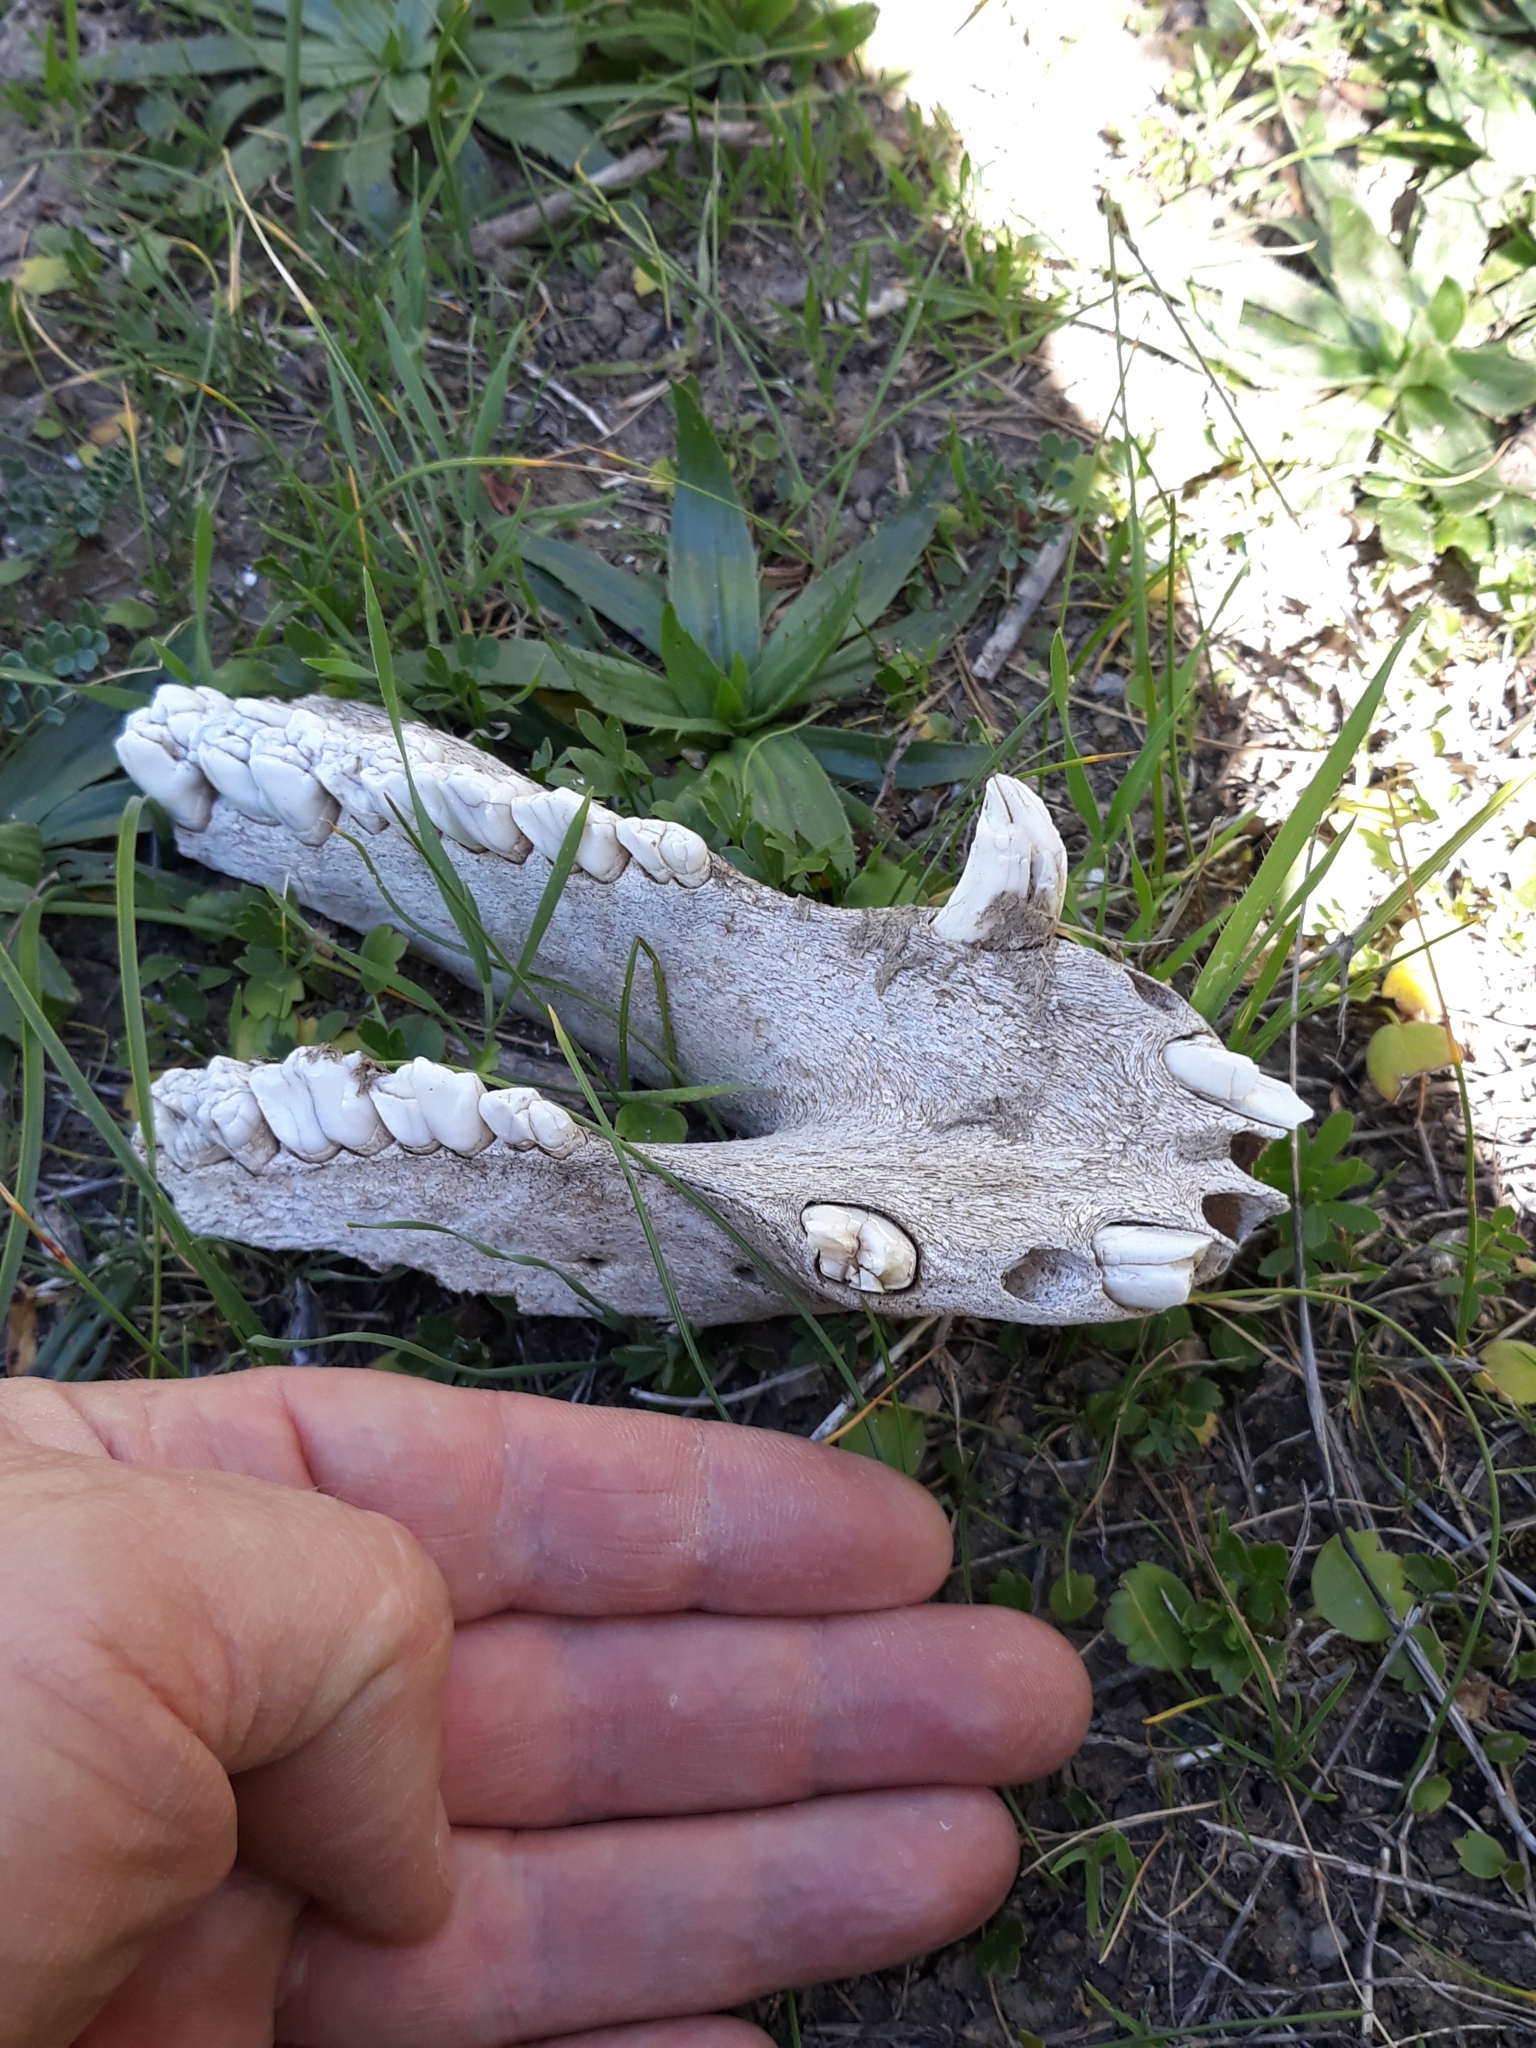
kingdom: Animalia
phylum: Chordata
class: Mammalia
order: Artiodactyla
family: Suidae
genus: Sus
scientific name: Sus scrofa
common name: Wild boar
